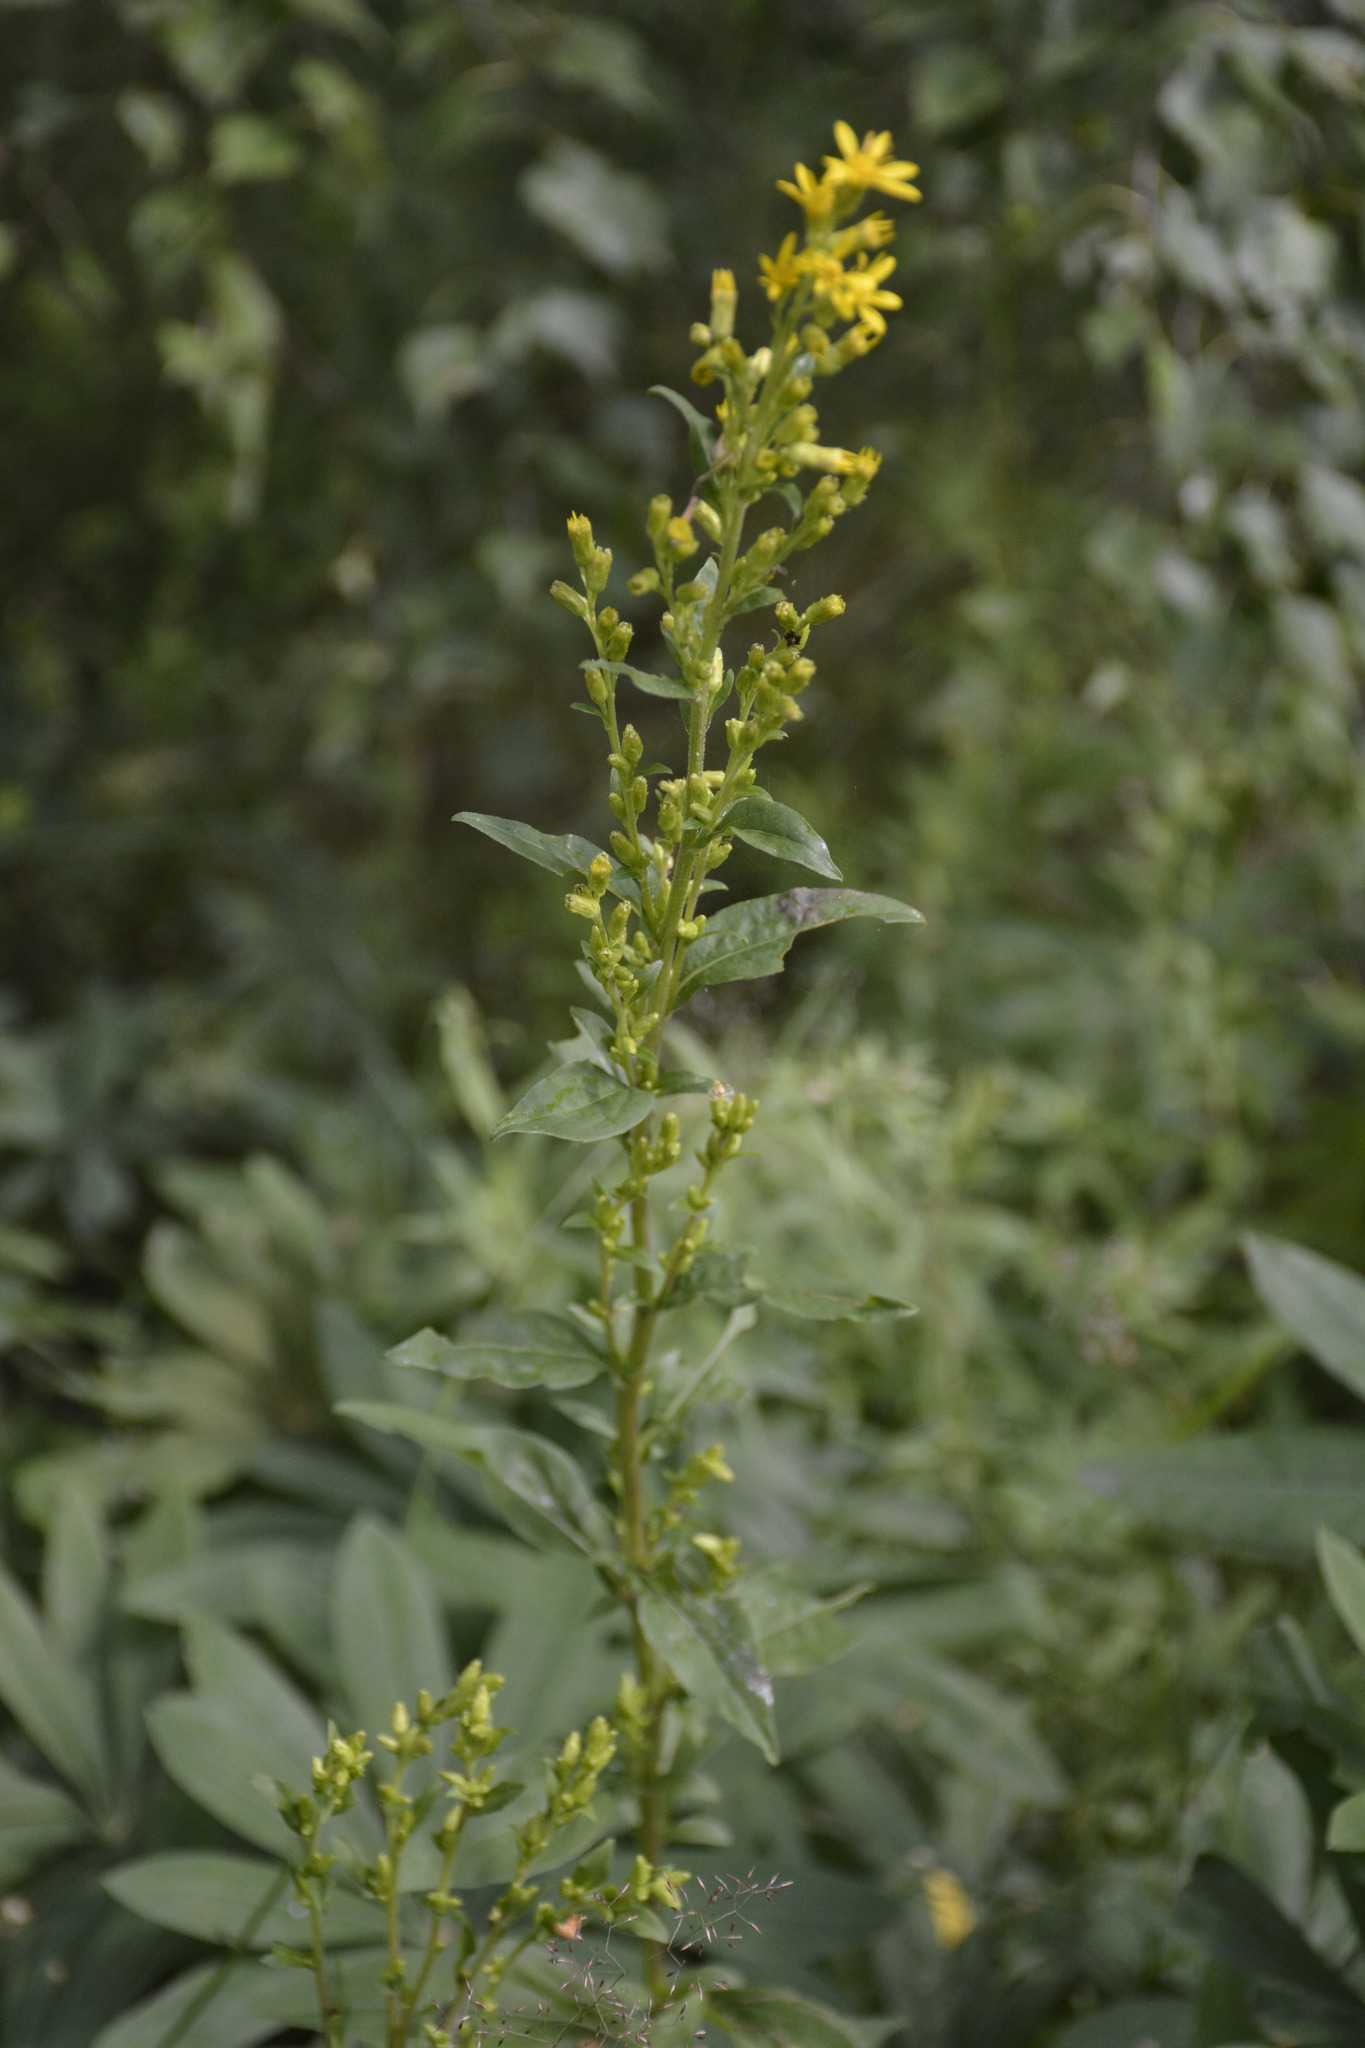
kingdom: Plantae
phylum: Tracheophyta
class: Magnoliopsida
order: Asterales
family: Asteraceae
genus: Solidago
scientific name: Solidago virgaurea
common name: Goldenrod
